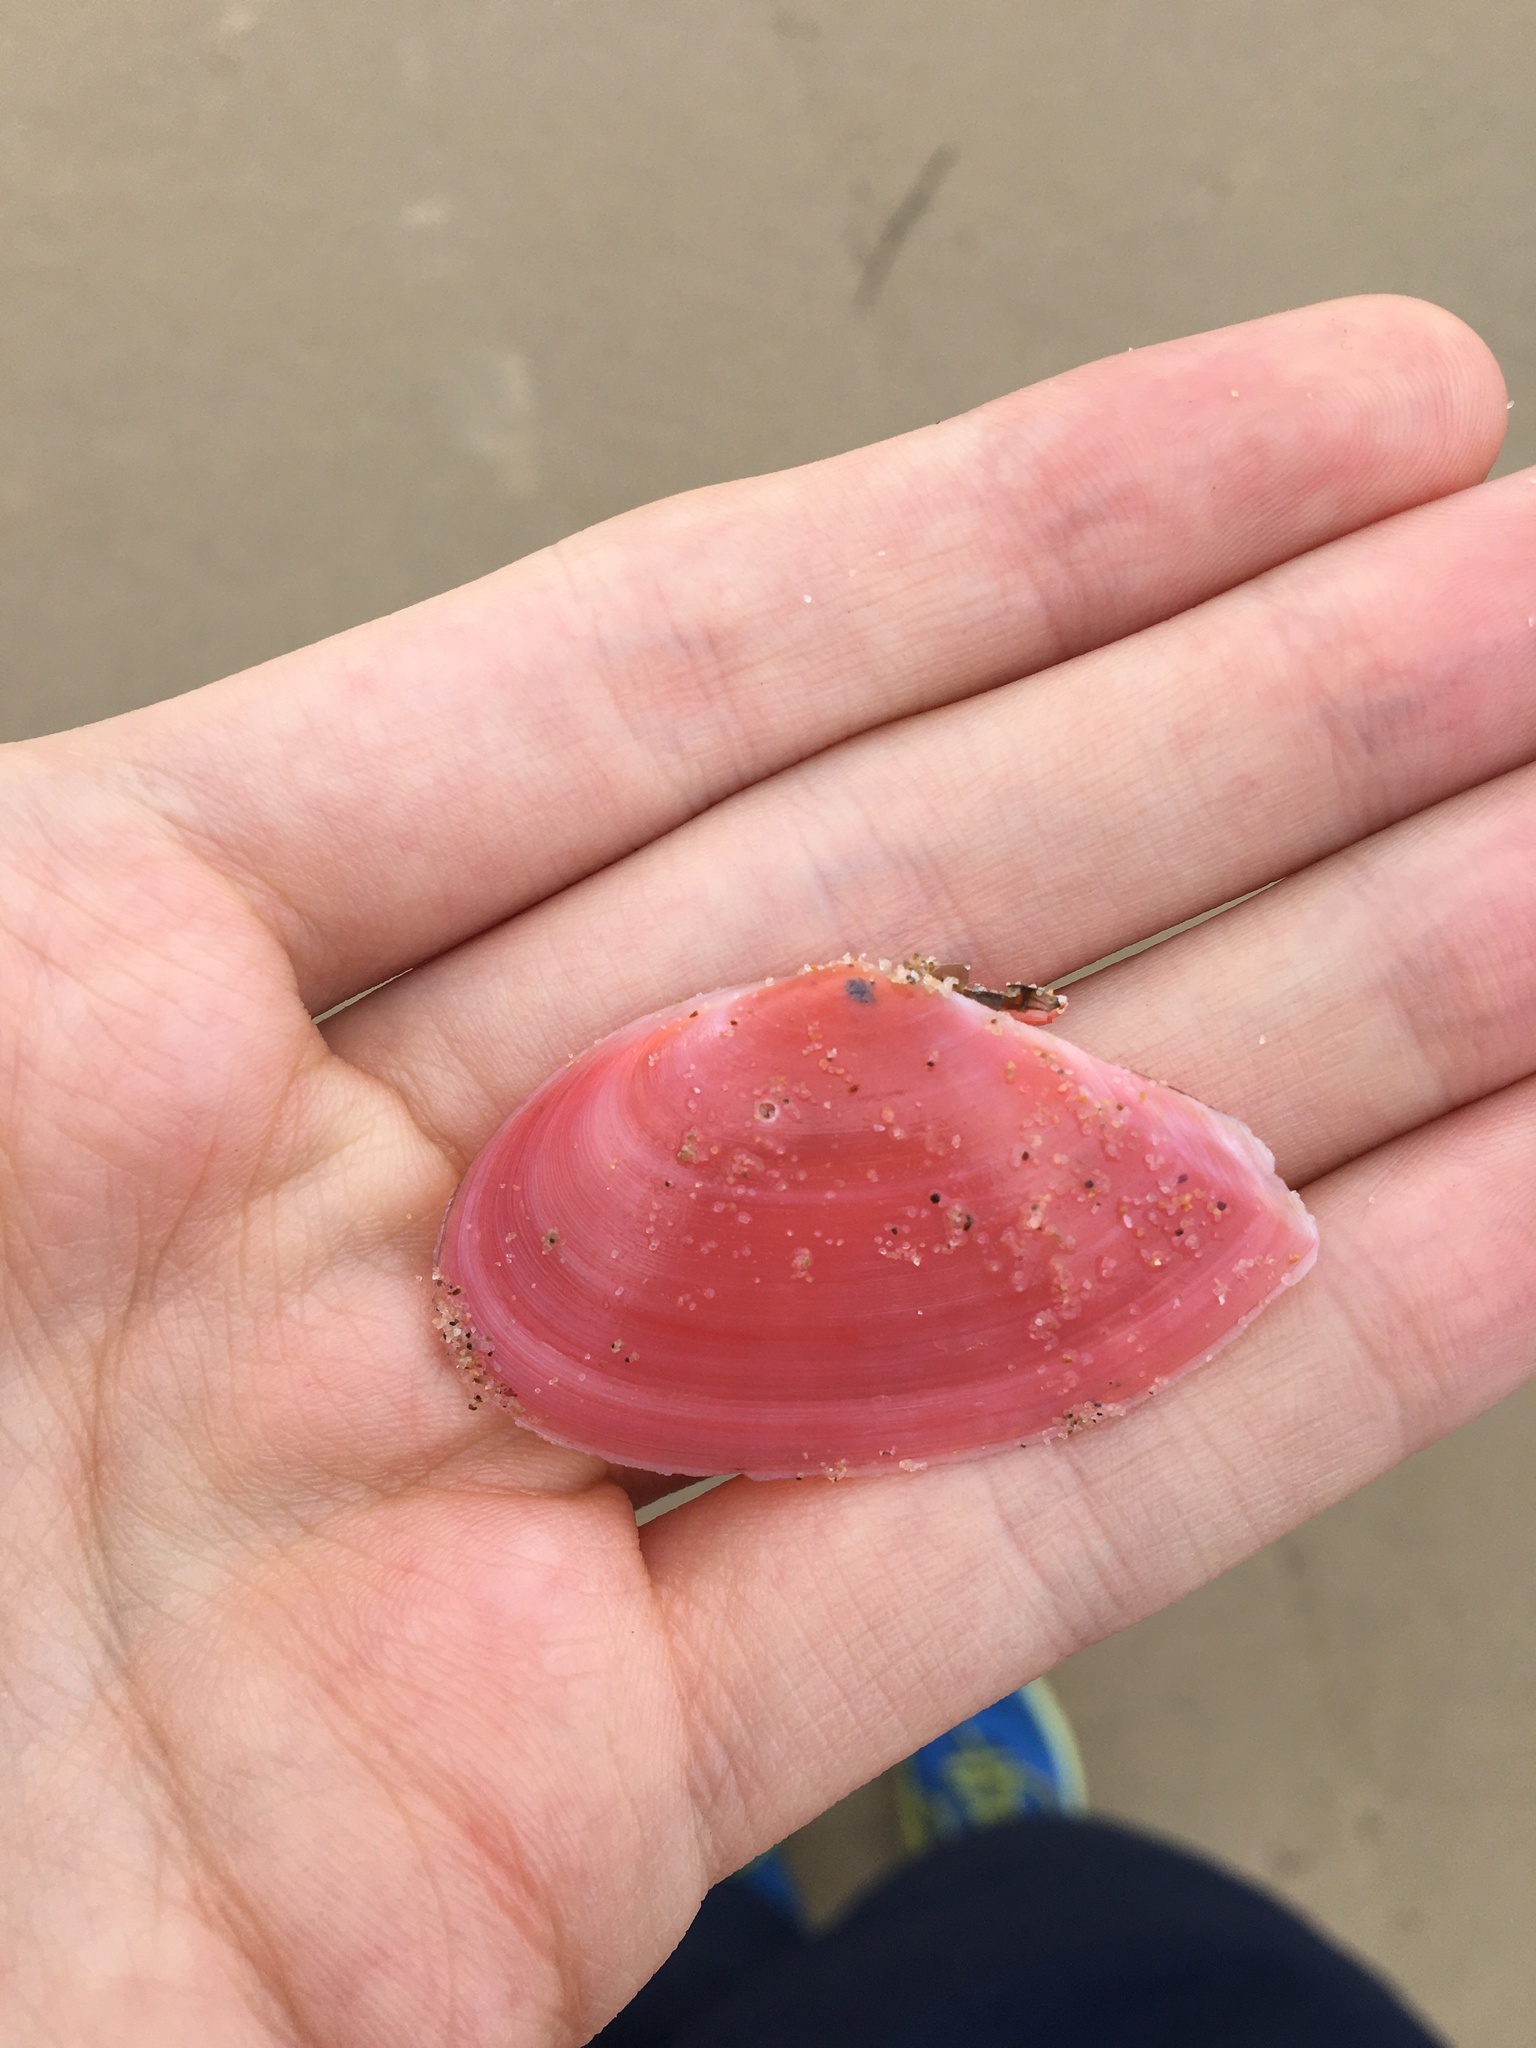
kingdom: Animalia
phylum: Mollusca
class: Bivalvia
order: Cardiida
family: Tellinidae
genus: Tellinota
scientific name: Tellinota albinella
